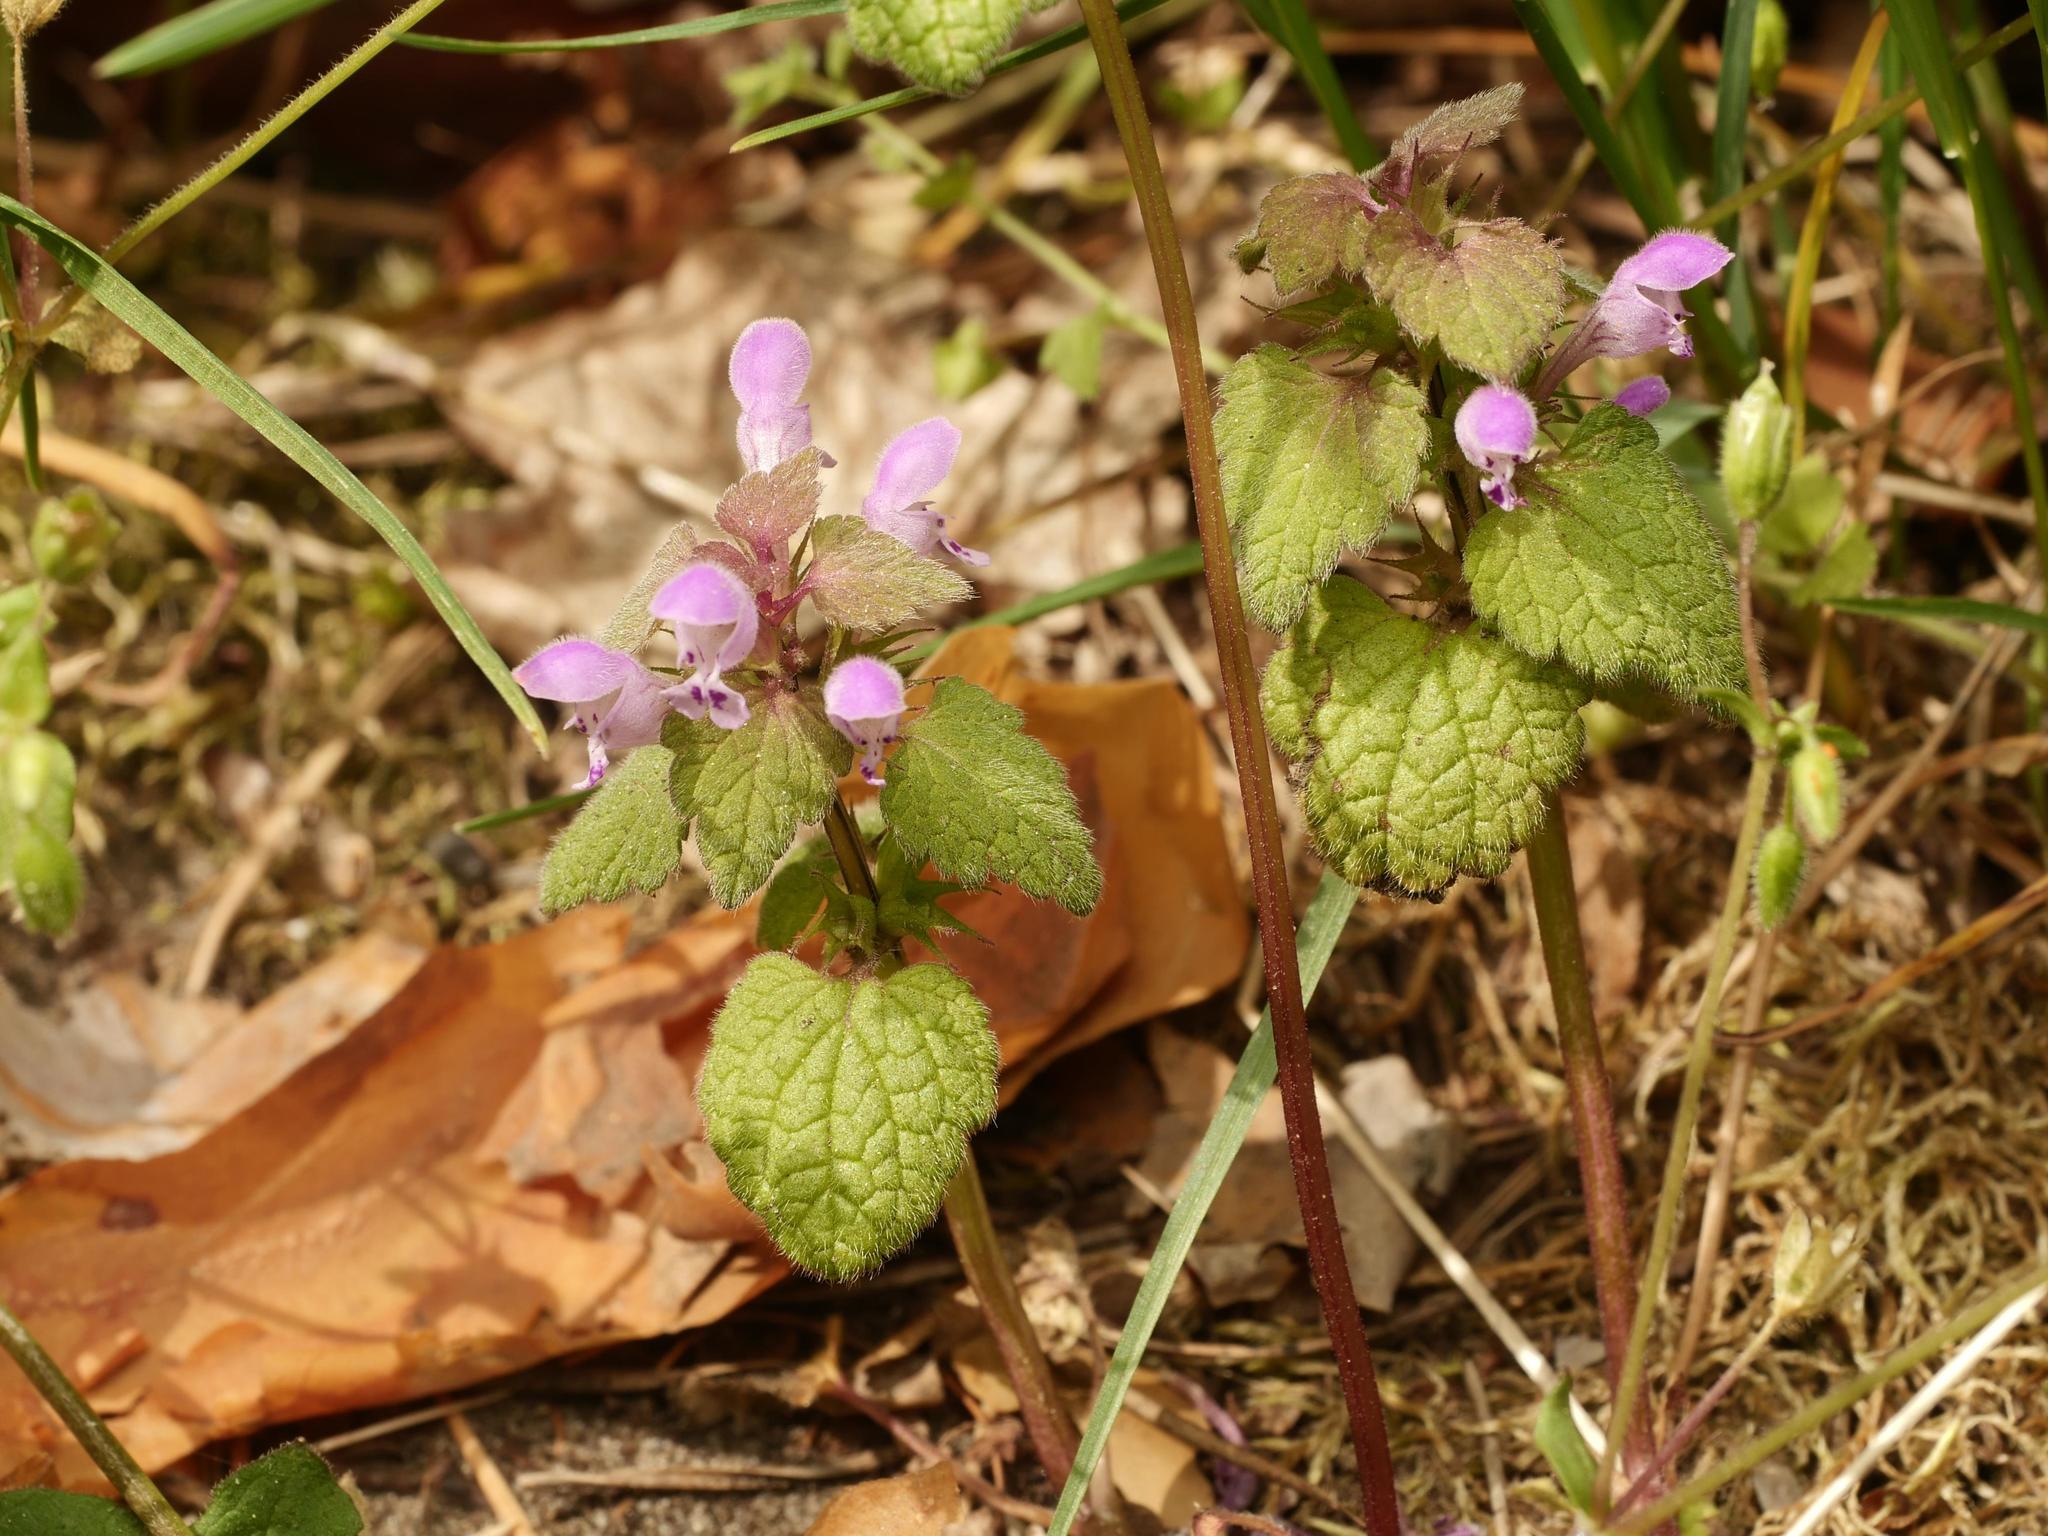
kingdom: Plantae
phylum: Tracheophyta
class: Magnoliopsida
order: Lamiales
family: Lamiaceae
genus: Lamium
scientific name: Lamium purpureum
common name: Red dead-nettle
